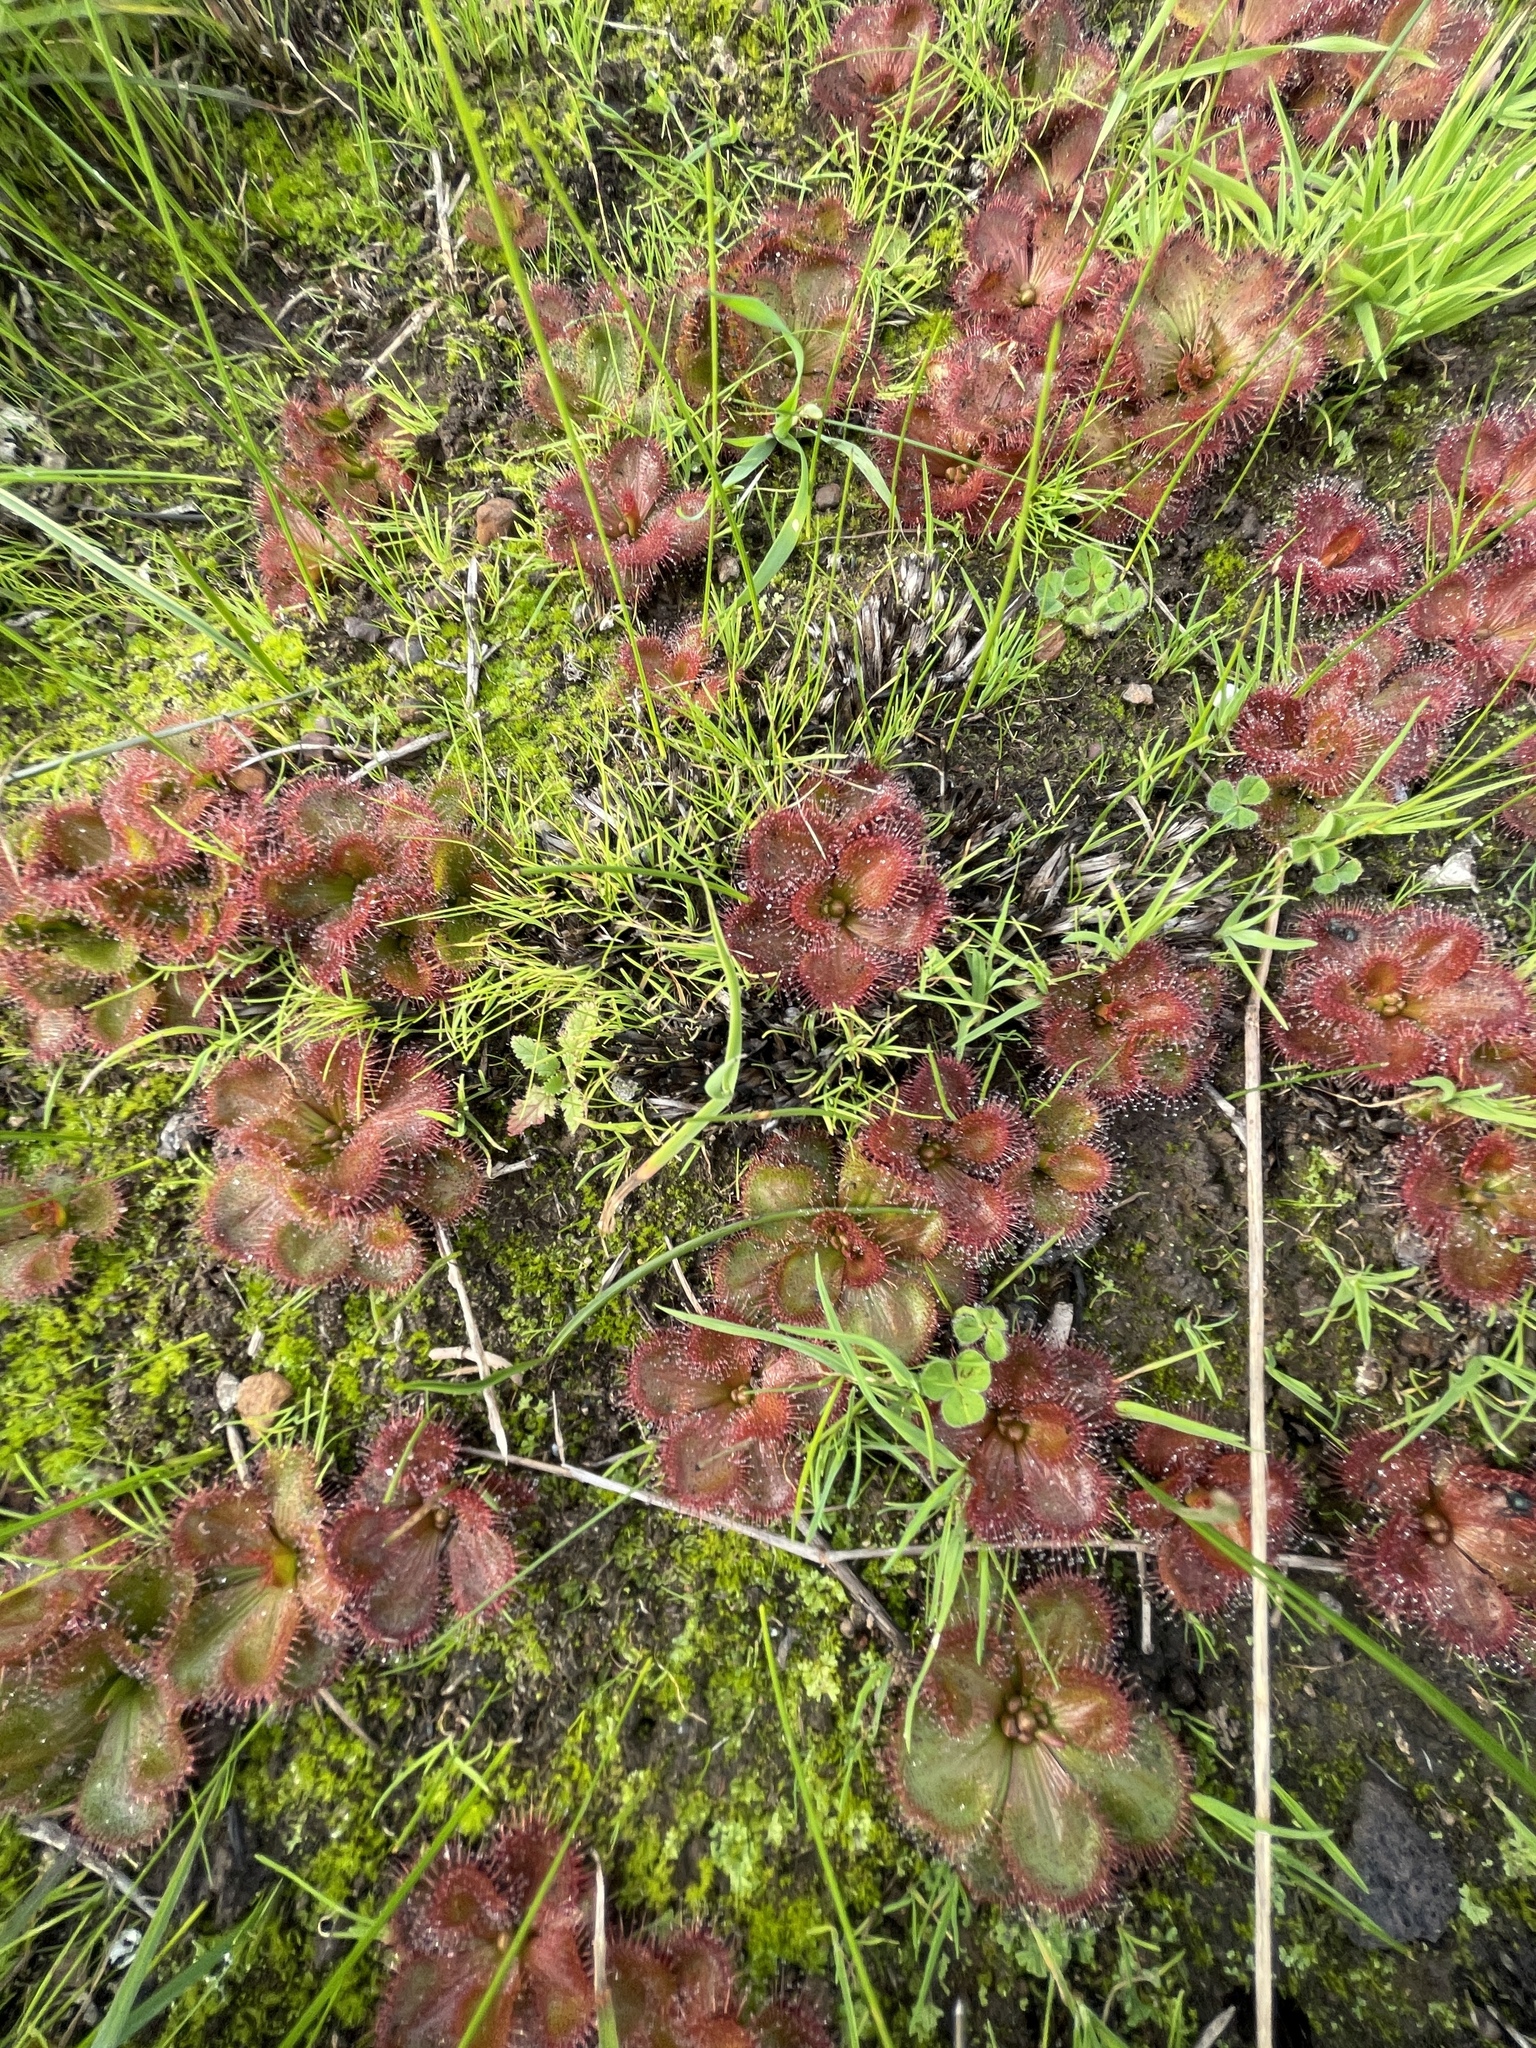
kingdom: Plantae
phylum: Tracheophyta
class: Magnoliopsida
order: Caryophyllales
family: Droseraceae
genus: Drosera
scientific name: Drosera aberrans
